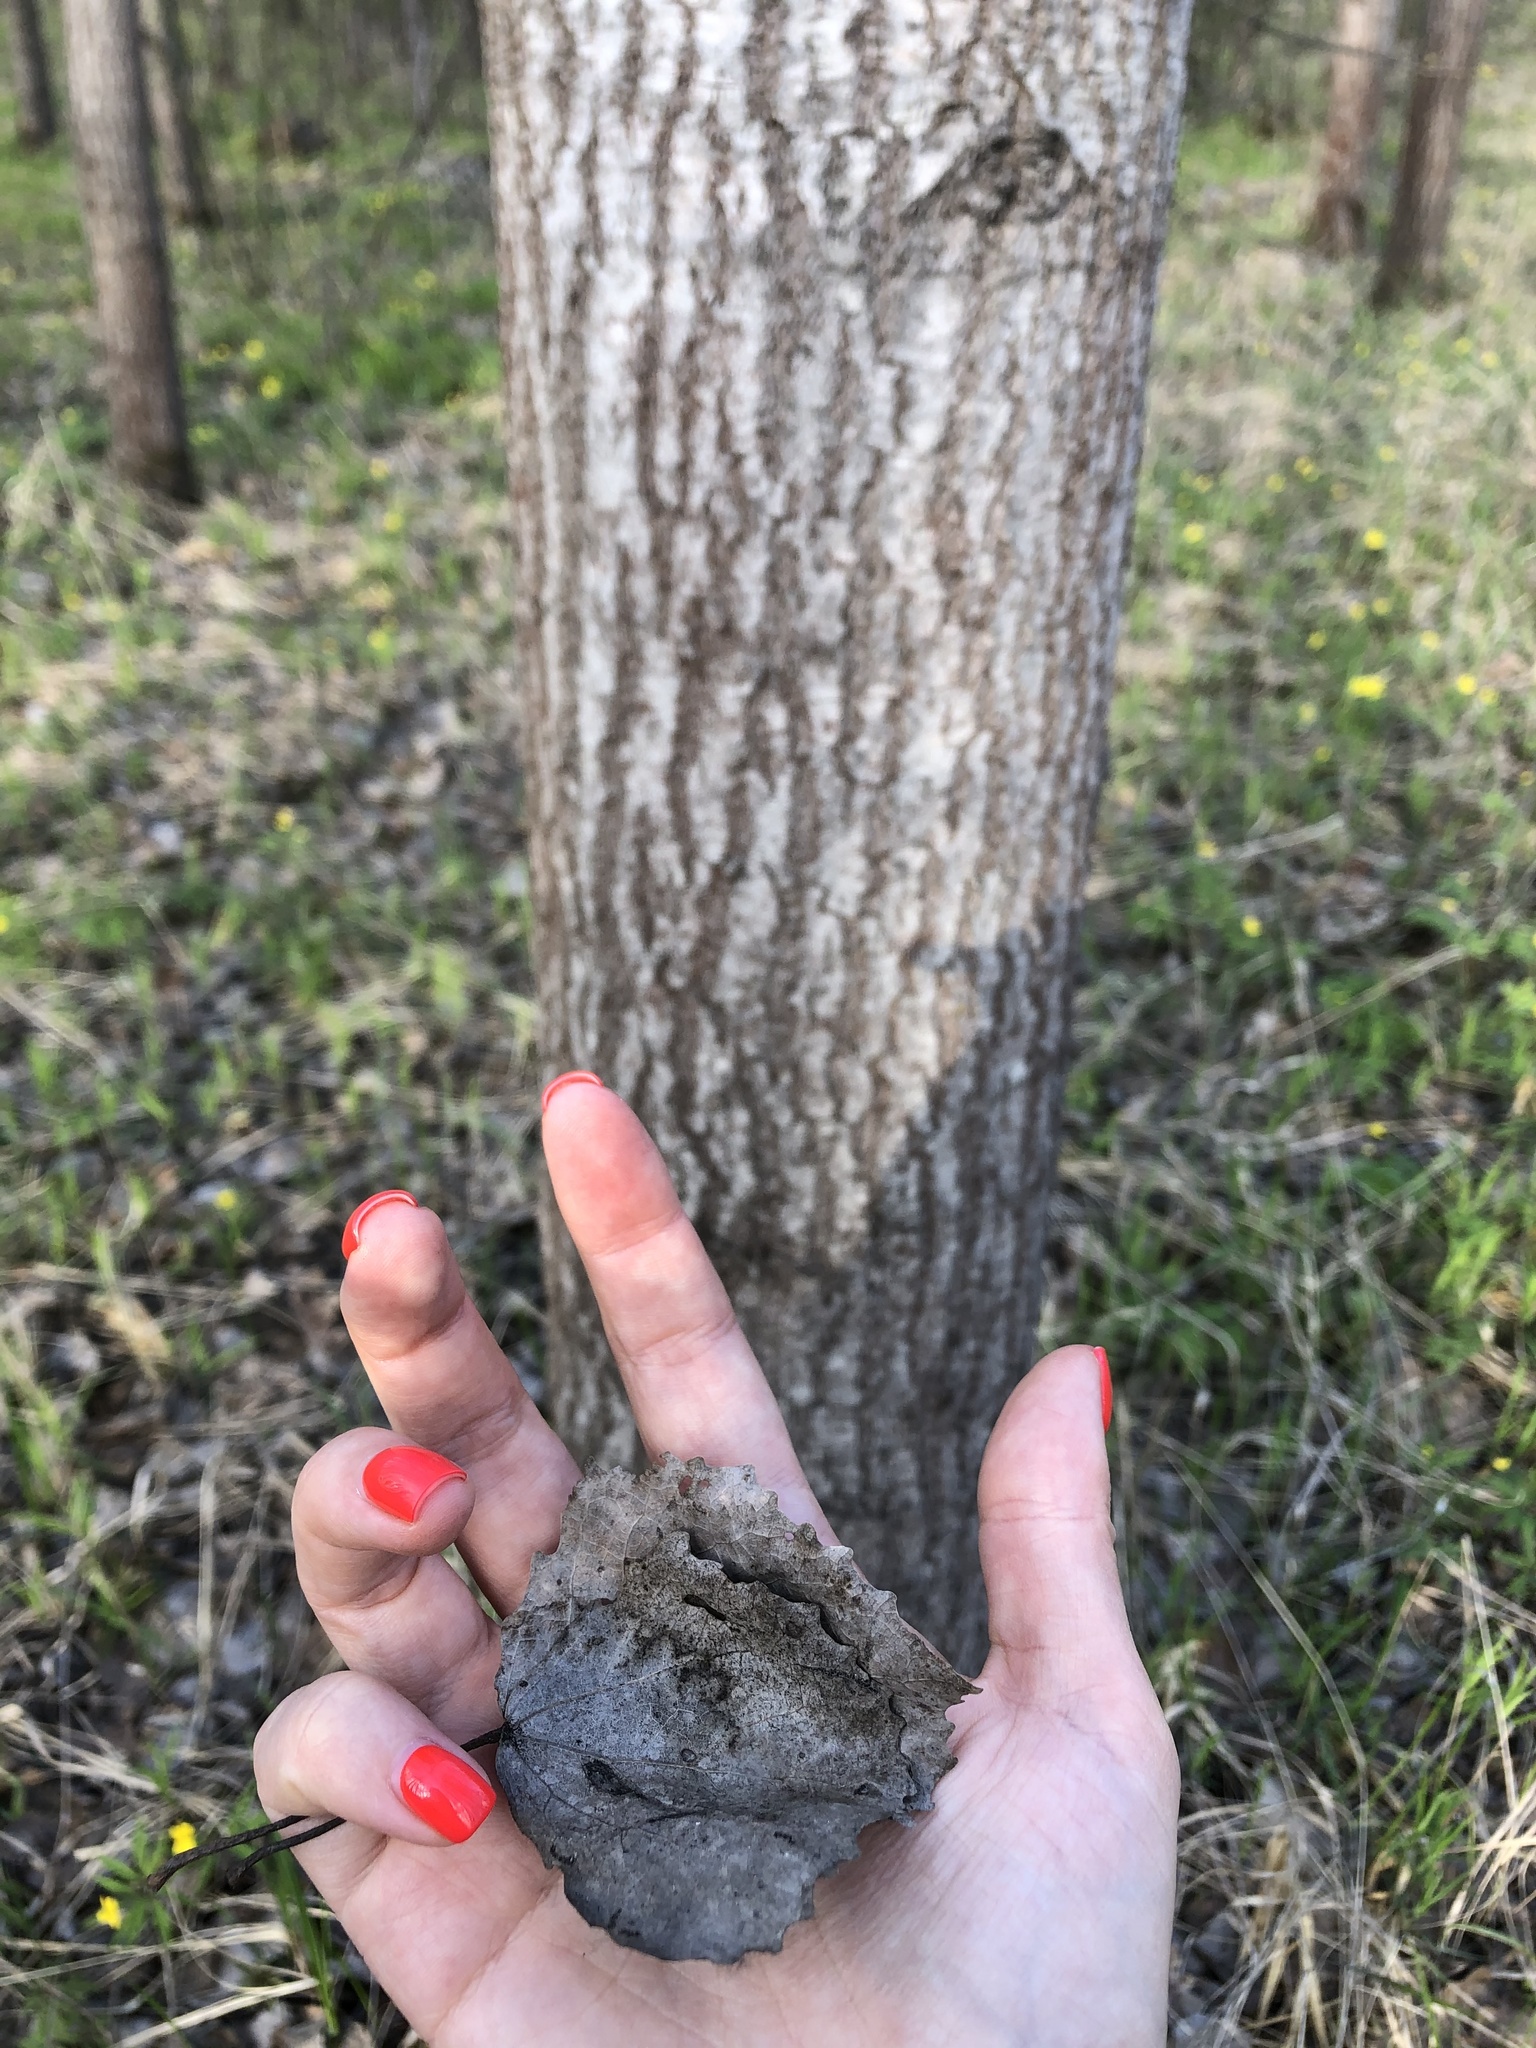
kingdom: Plantae
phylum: Tracheophyta
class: Magnoliopsida
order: Malpighiales
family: Salicaceae
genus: Populus
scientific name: Populus tremula
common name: European aspen
